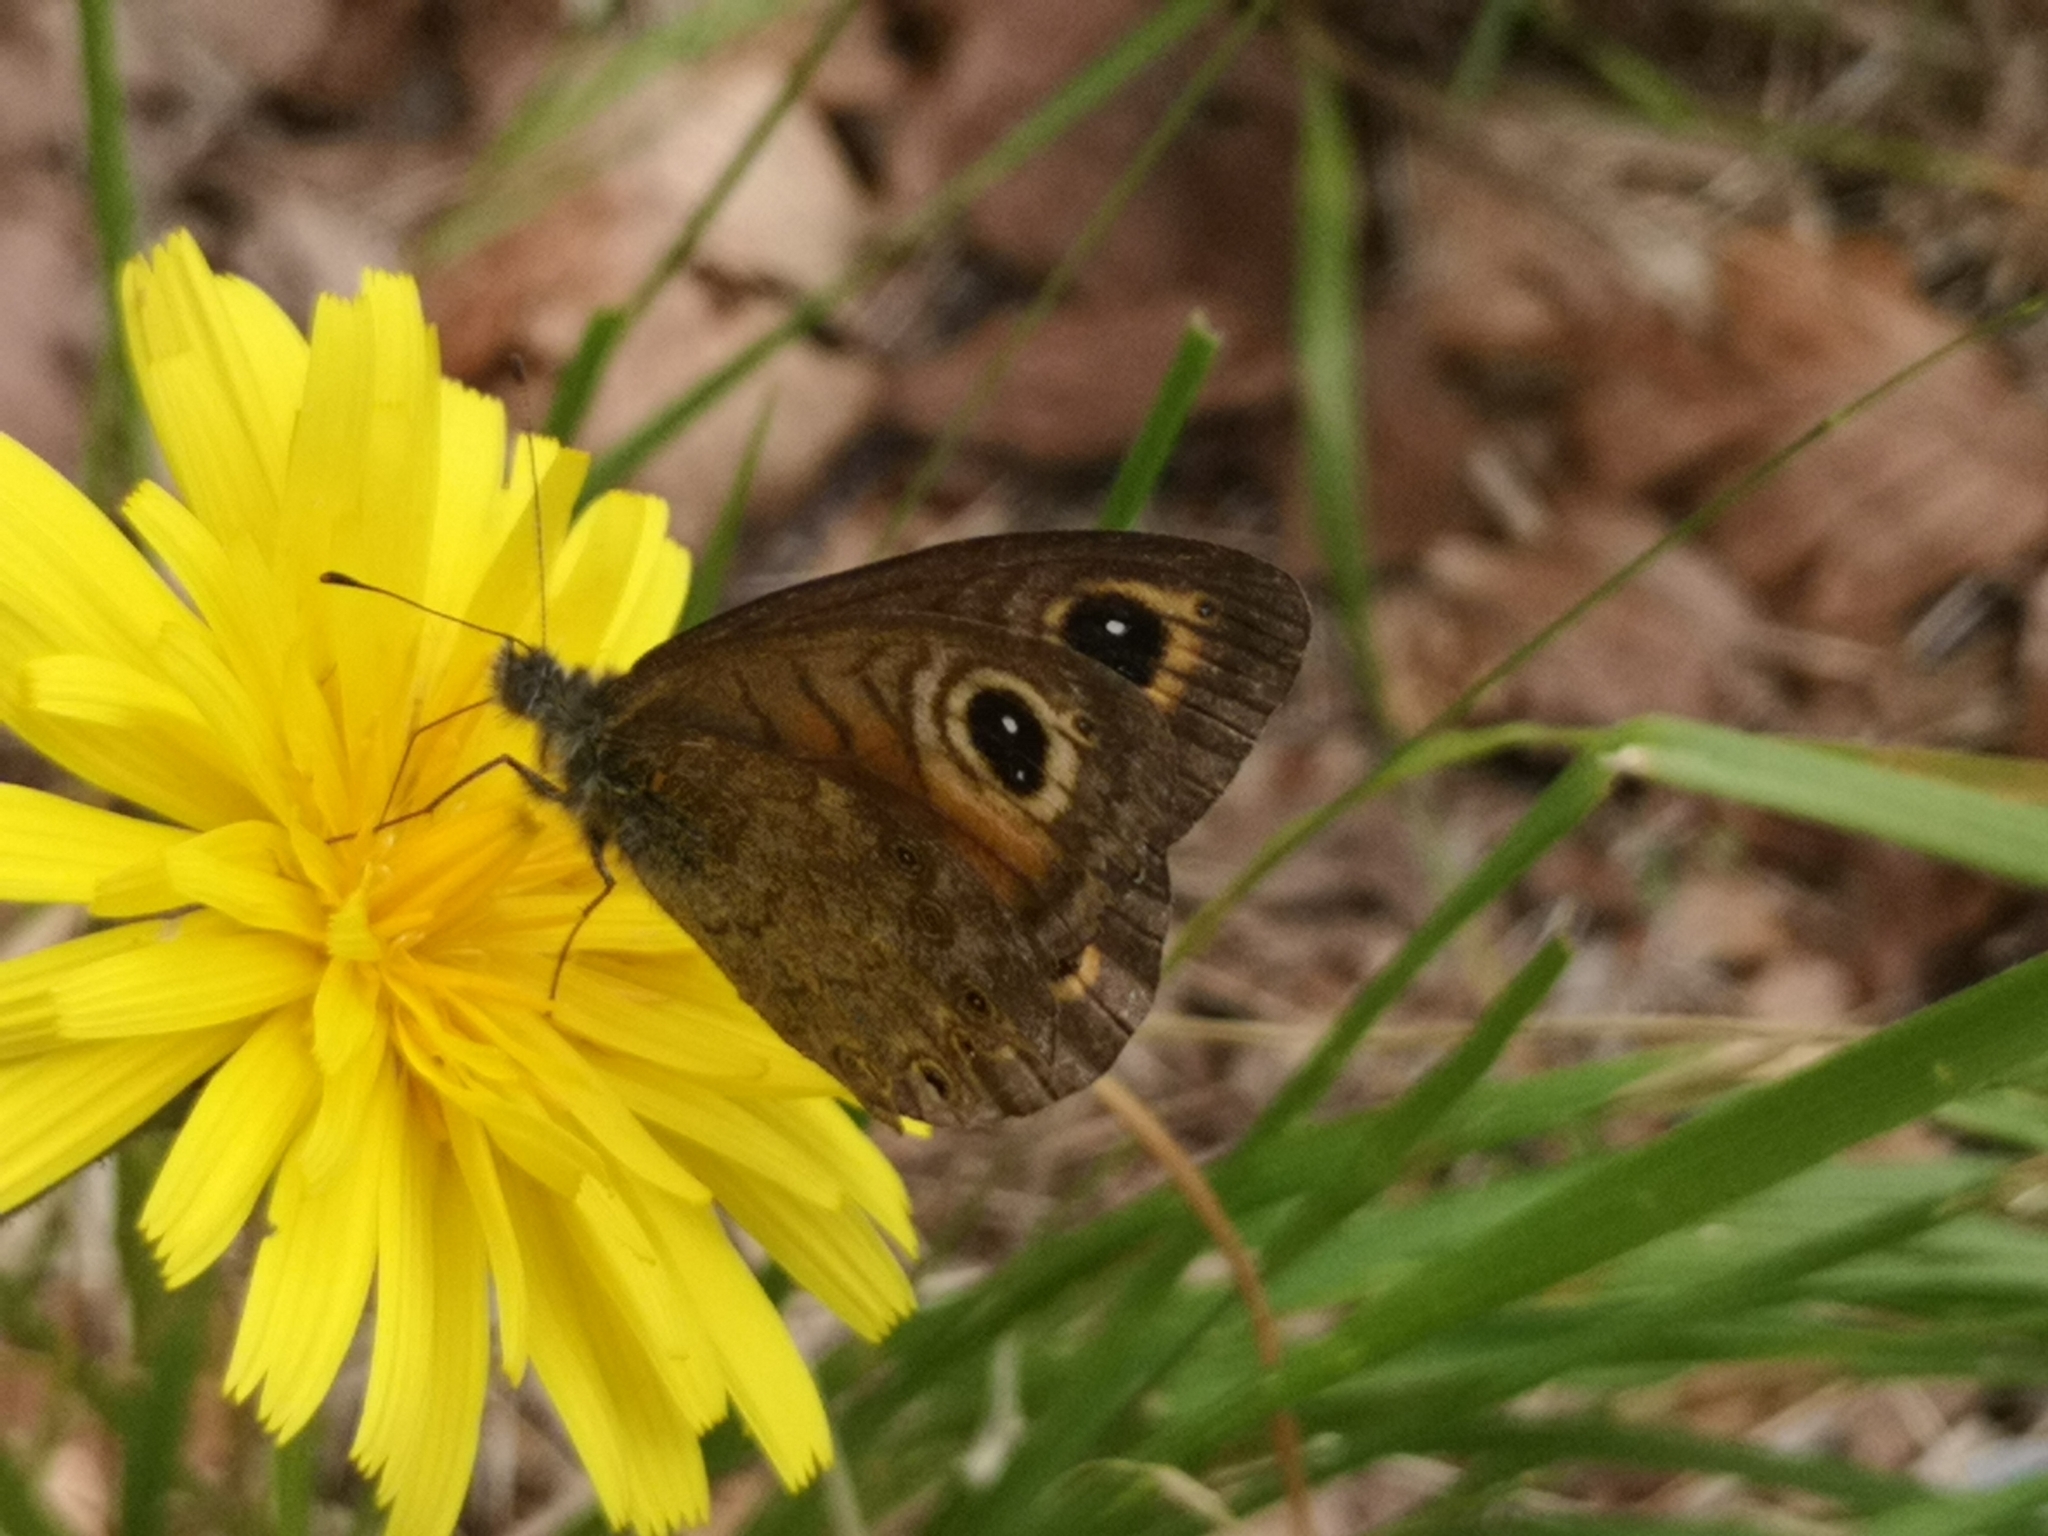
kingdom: Animalia
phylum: Arthropoda
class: Insecta
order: Lepidoptera
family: Nymphalidae
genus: Pararge
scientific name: Pararge Lasiommata maera
